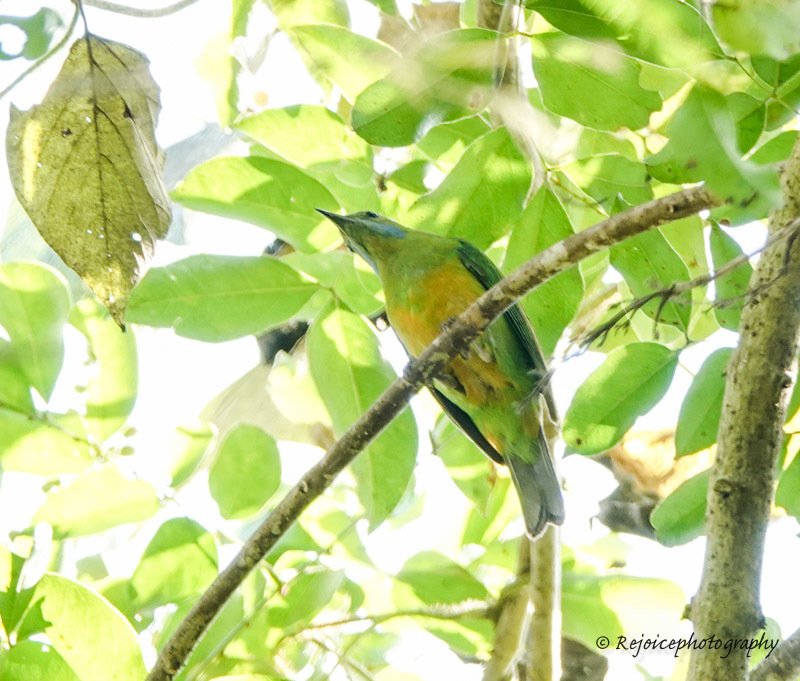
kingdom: Animalia
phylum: Chordata
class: Aves
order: Passeriformes
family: Chloropseidae
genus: Chloropsis
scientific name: Chloropsis hardwickii
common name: Orange-bellied leafbird
